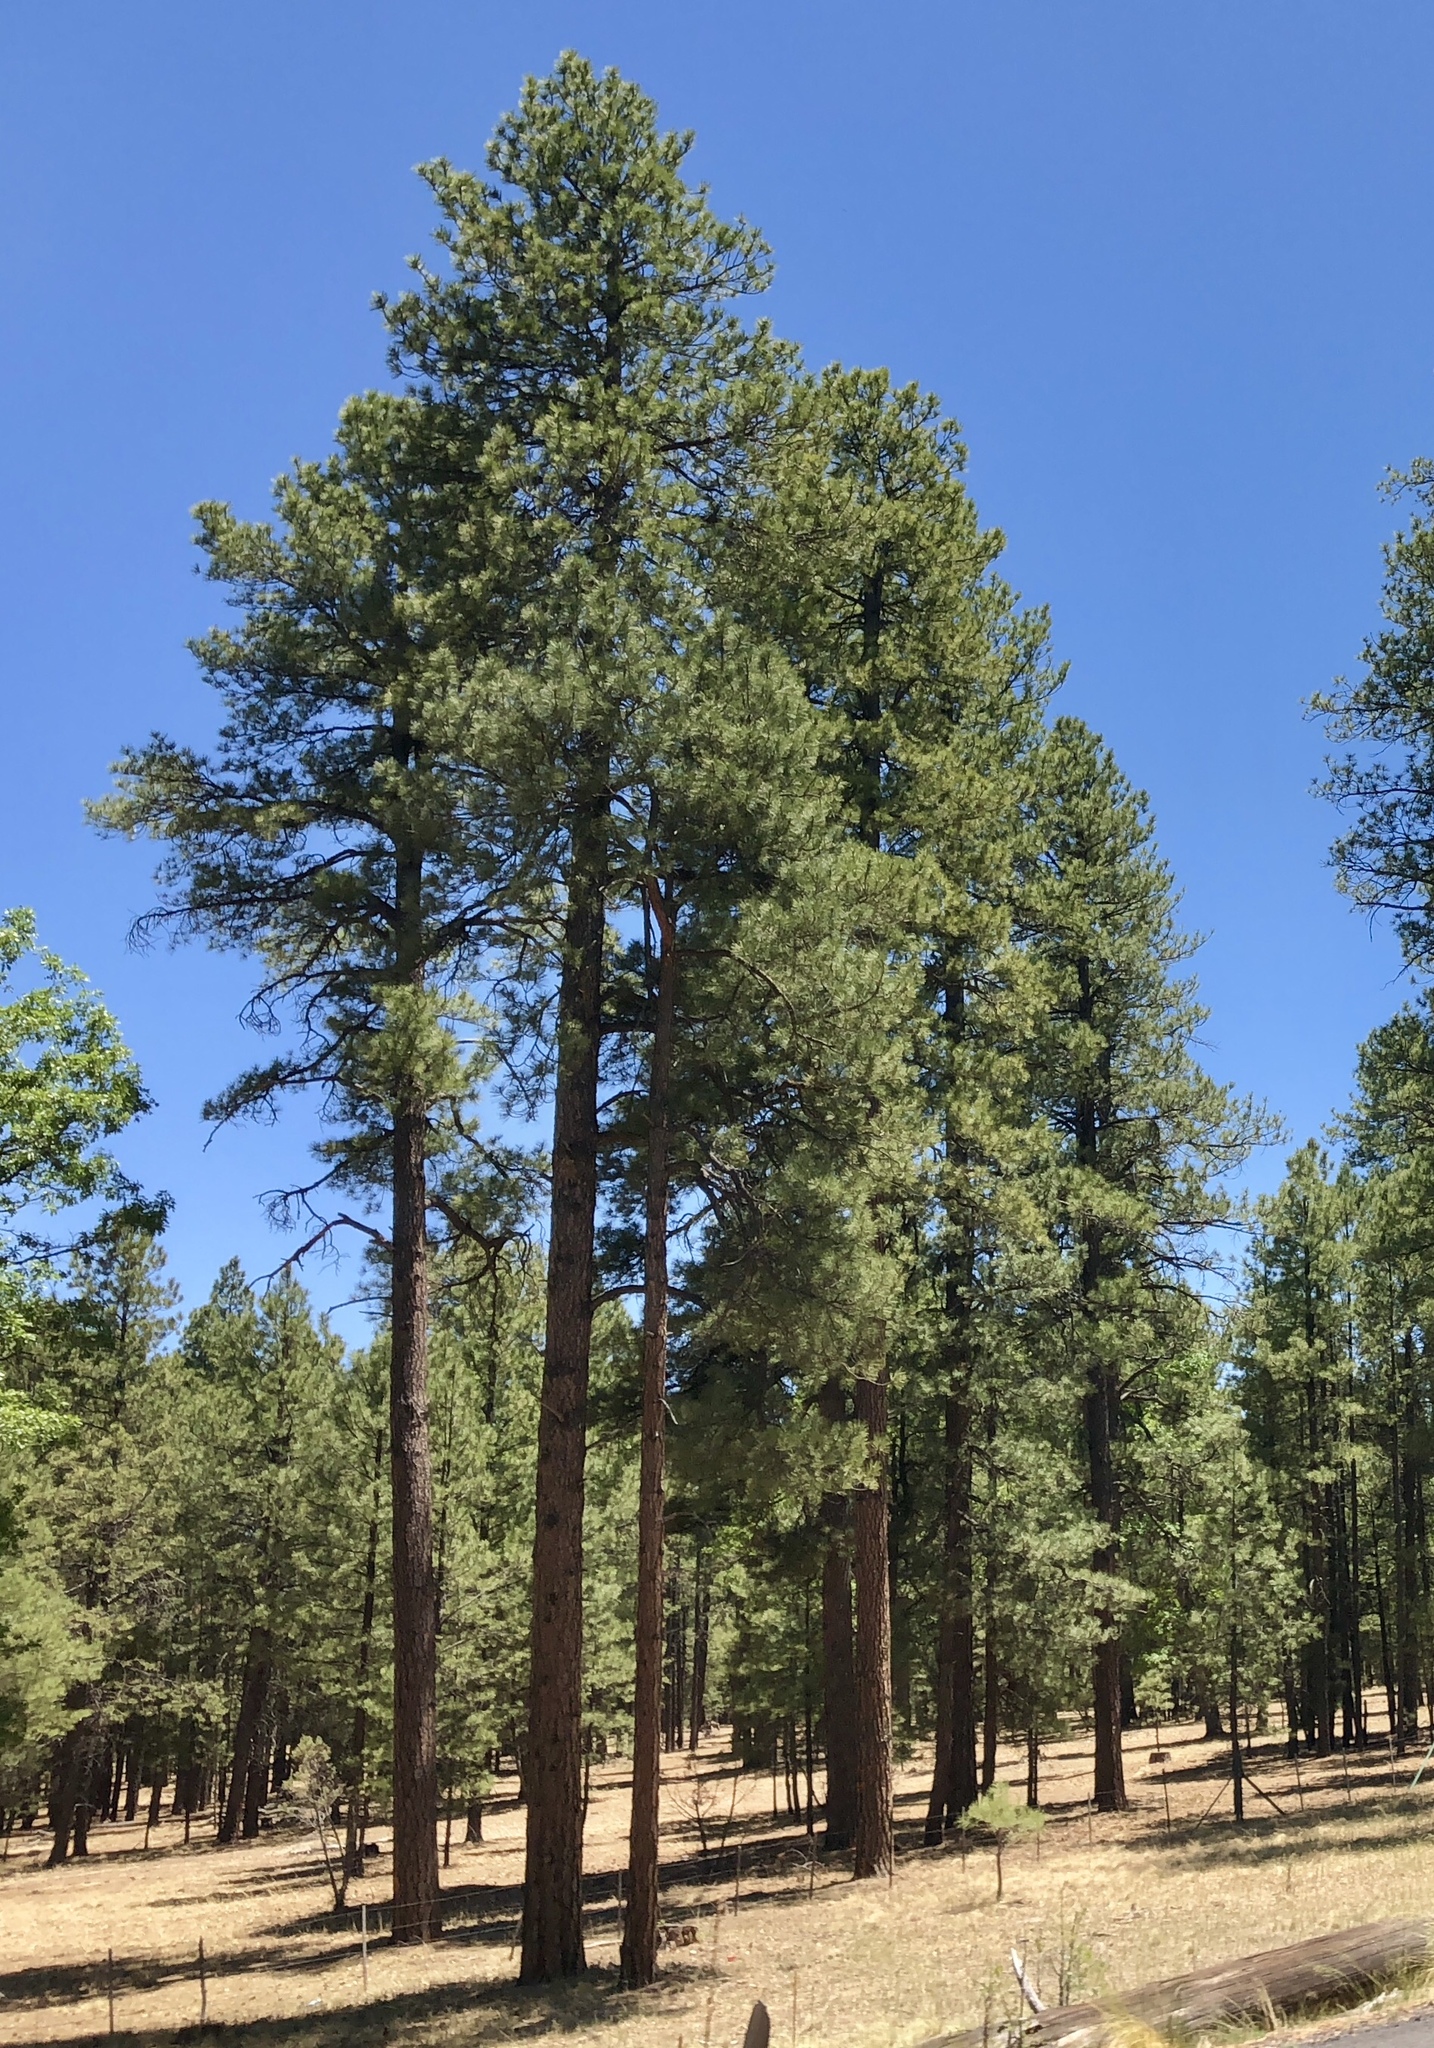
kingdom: Plantae
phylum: Tracheophyta
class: Pinopsida
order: Pinales
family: Pinaceae
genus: Pinus
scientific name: Pinus ponderosa
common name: Western yellow-pine
